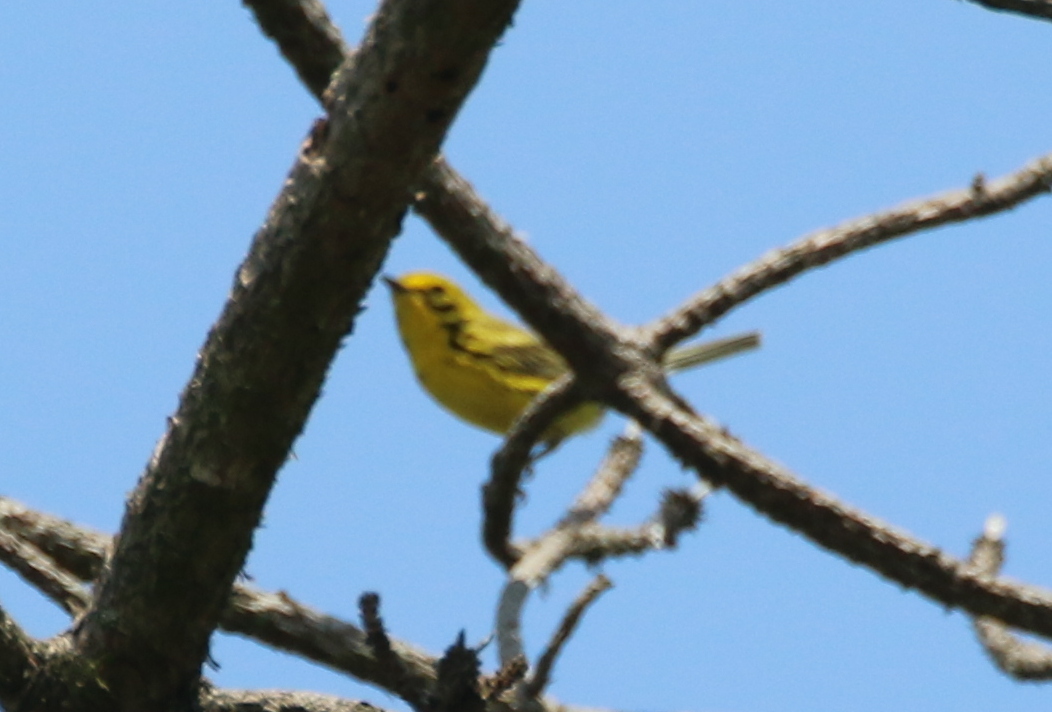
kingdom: Animalia
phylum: Chordata
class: Aves
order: Passeriformes
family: Parulidae
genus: Setophaga
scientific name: Setophaga discolor
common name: Prairie warbler
